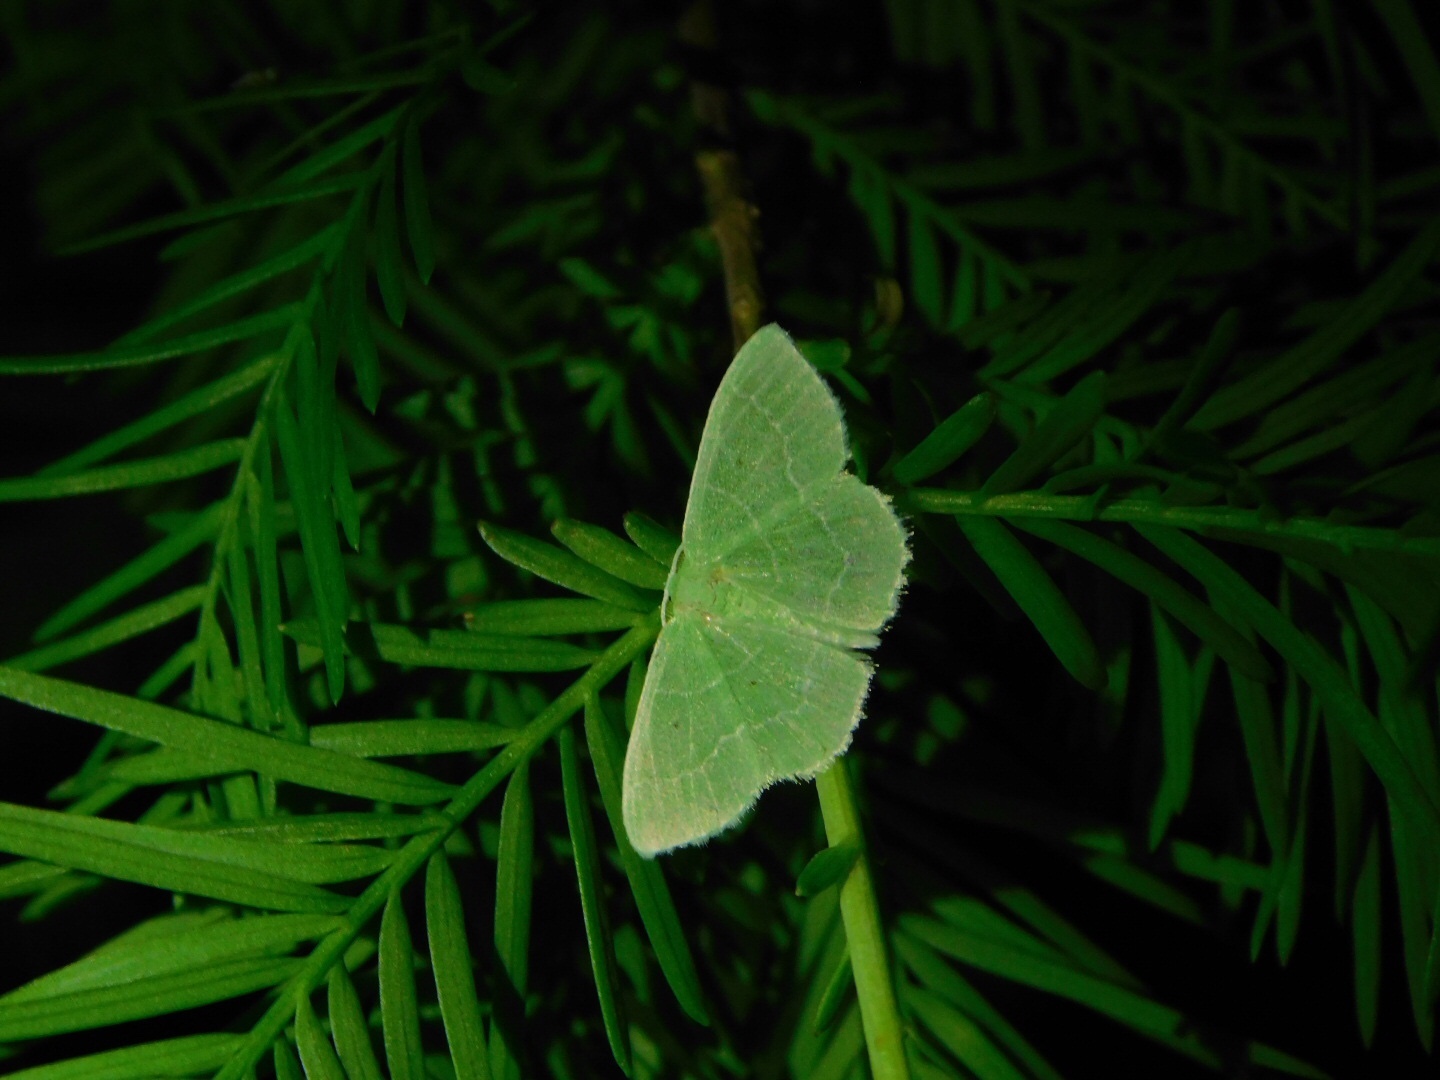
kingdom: Animalia
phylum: Arthropoda
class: Insecta
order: Lepidoptera
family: Geometridae
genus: Nemoria
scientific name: Nemoria elfa
